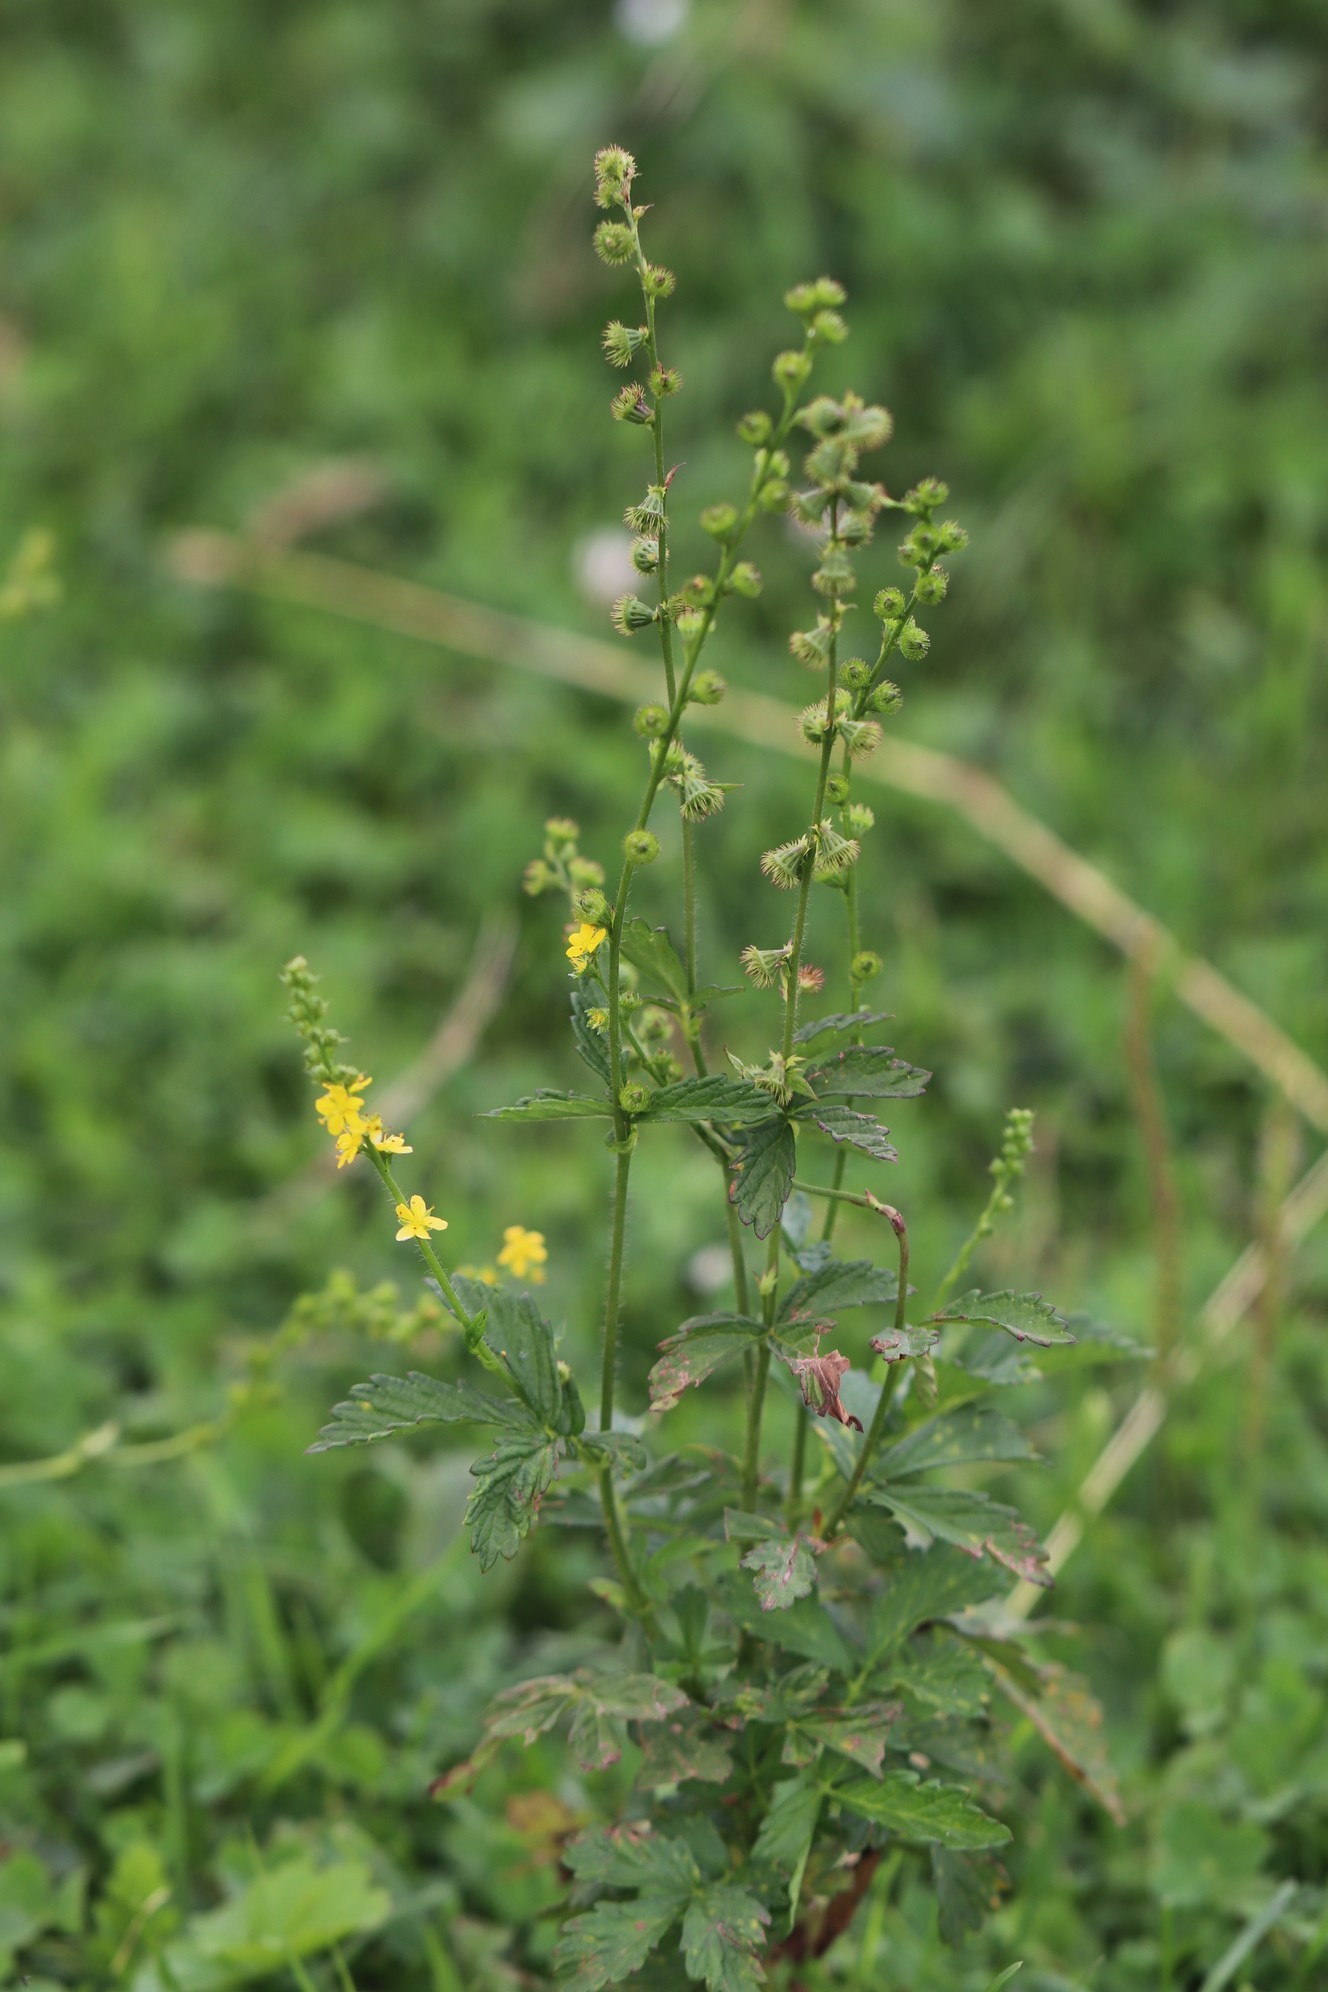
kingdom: Plantae
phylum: Tracheophyta
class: Magnoliopsida
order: Rosales
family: Rosaceae
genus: Agrimonia
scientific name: Agrimonia pilosa
